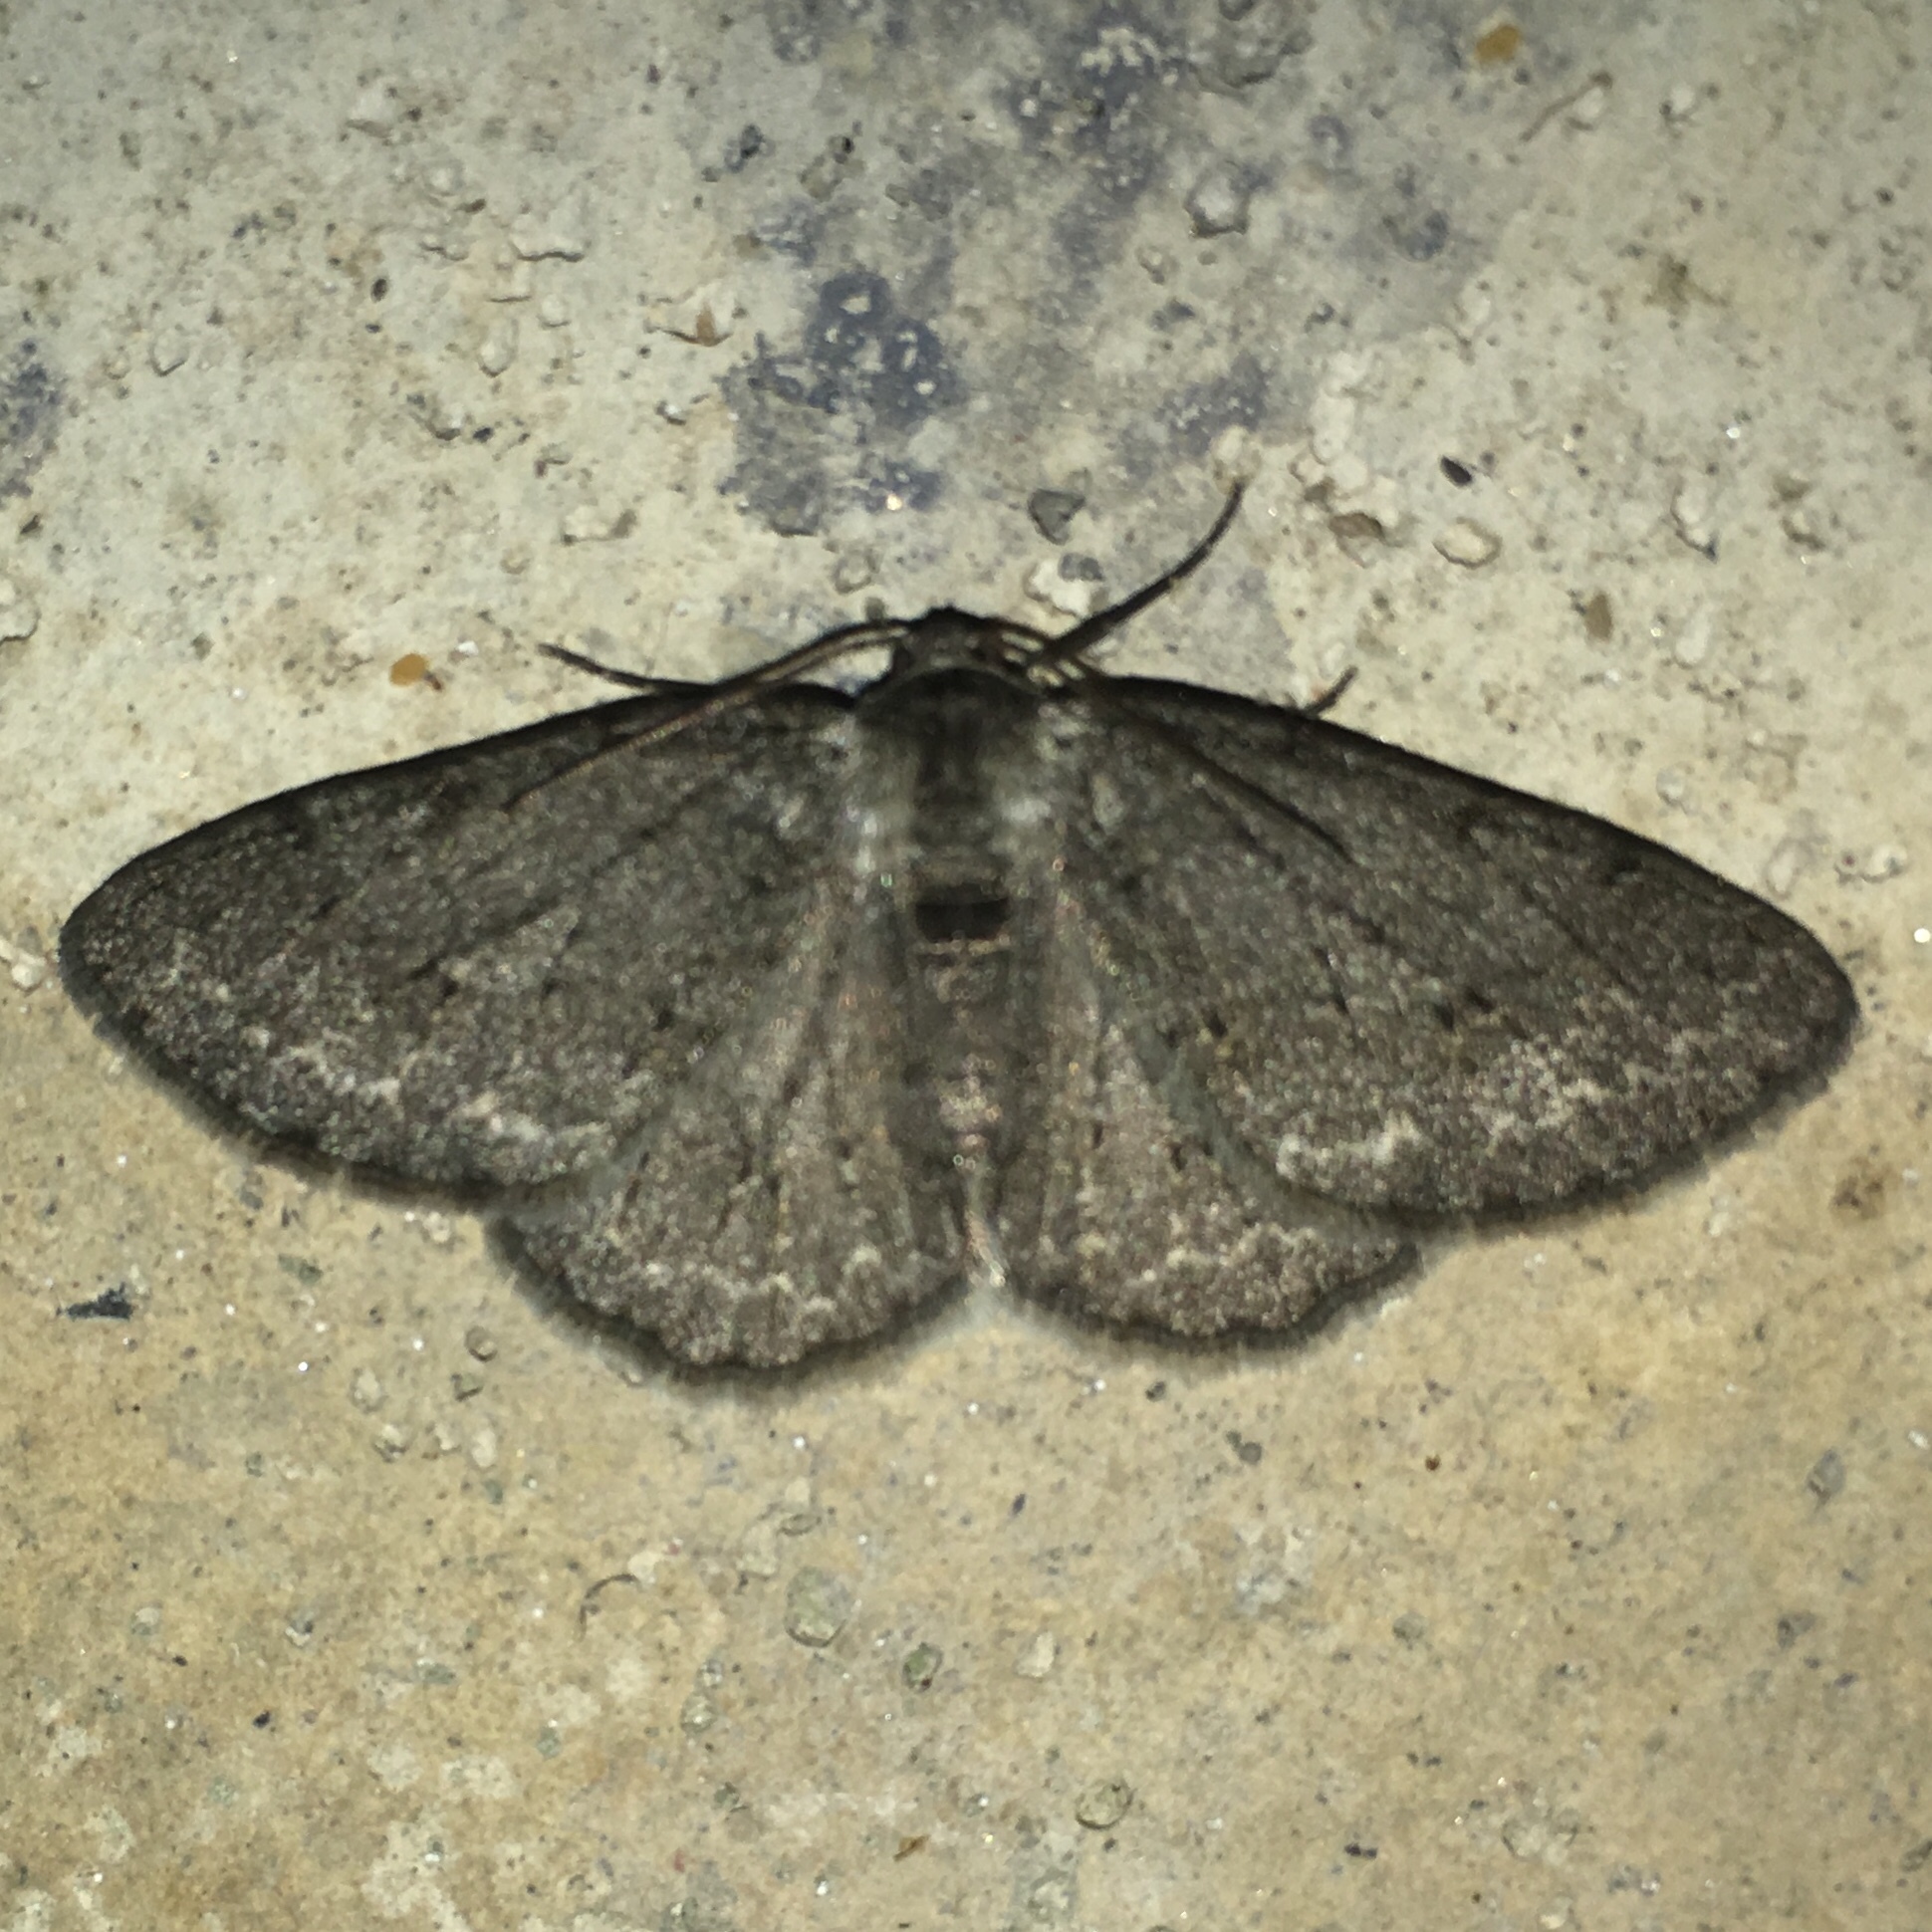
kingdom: Animalia
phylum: Arthropoda
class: Insecta
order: Lepidoptera
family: Geometridae
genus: Ectropis
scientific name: Ectropis crepuscularia
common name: Engrailed
